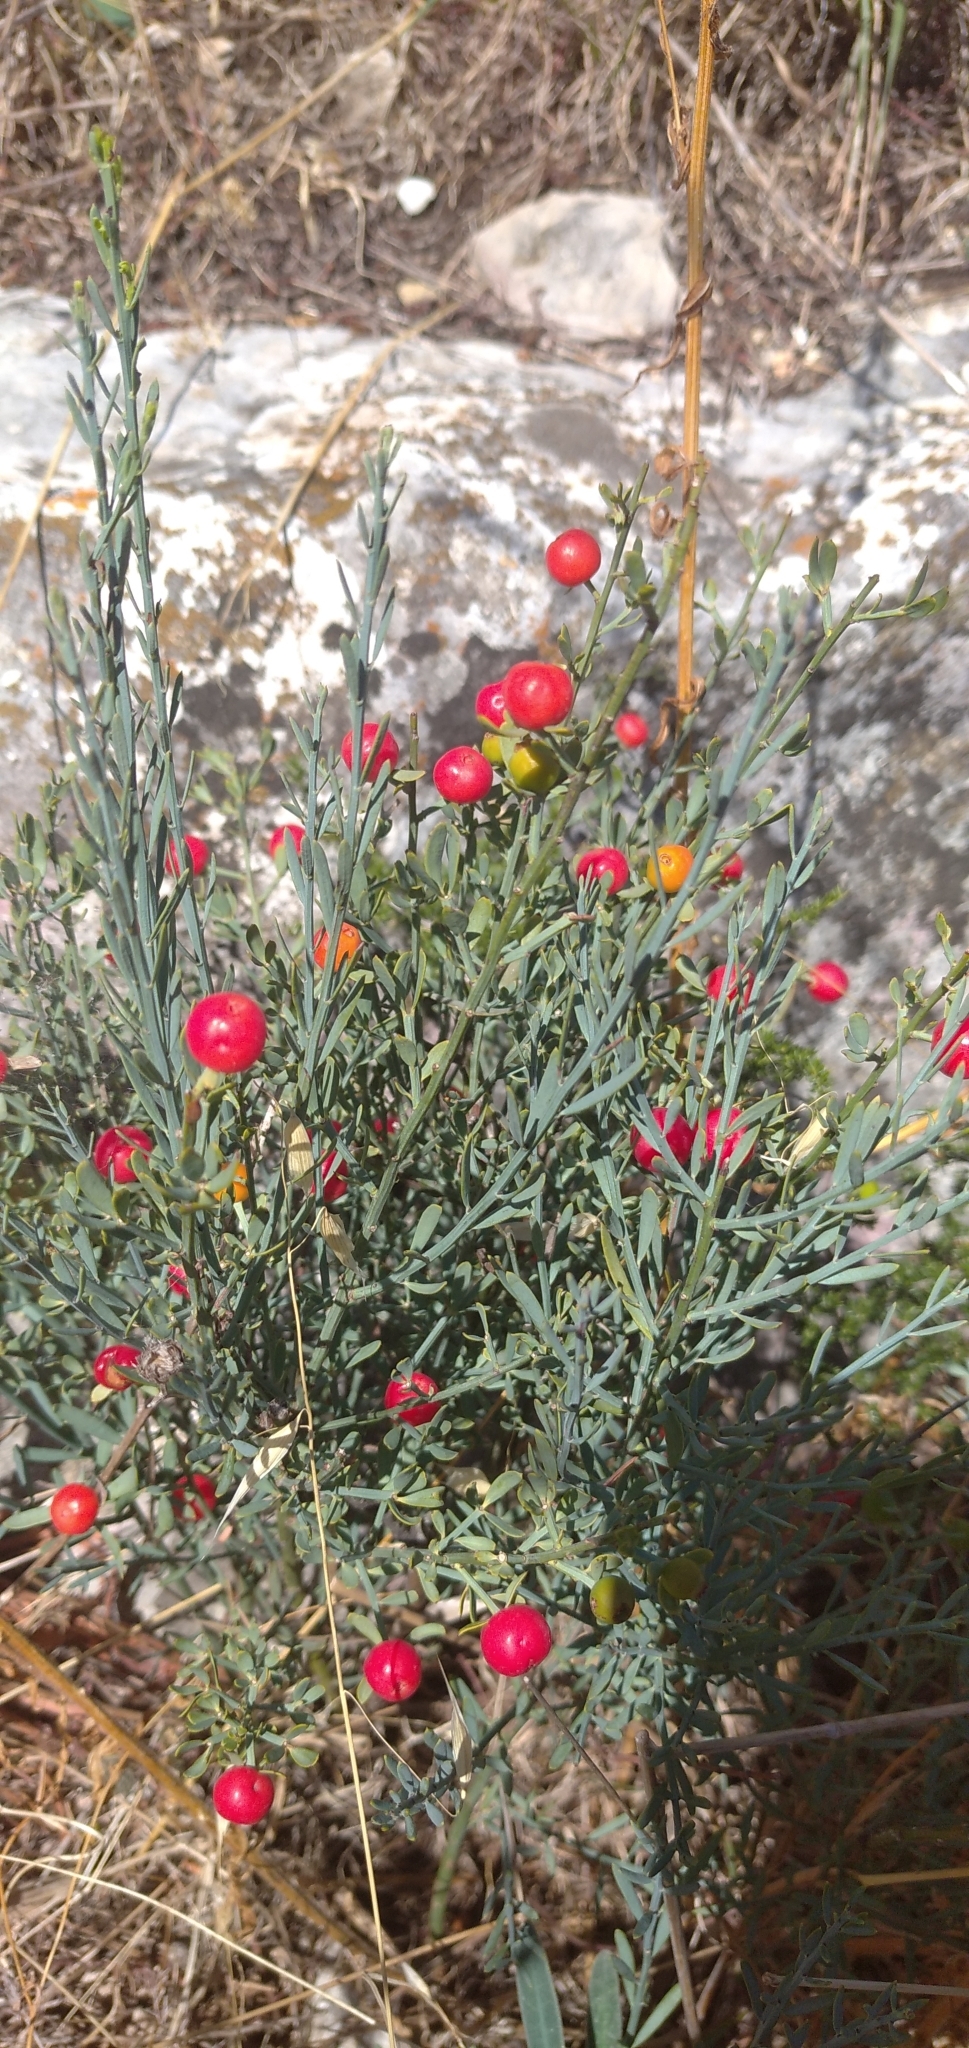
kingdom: Plantae
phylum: Tracheophyta
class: Magnoliopsida
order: Santalales
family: Santalaceae
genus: Osyris
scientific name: Osyris alba
